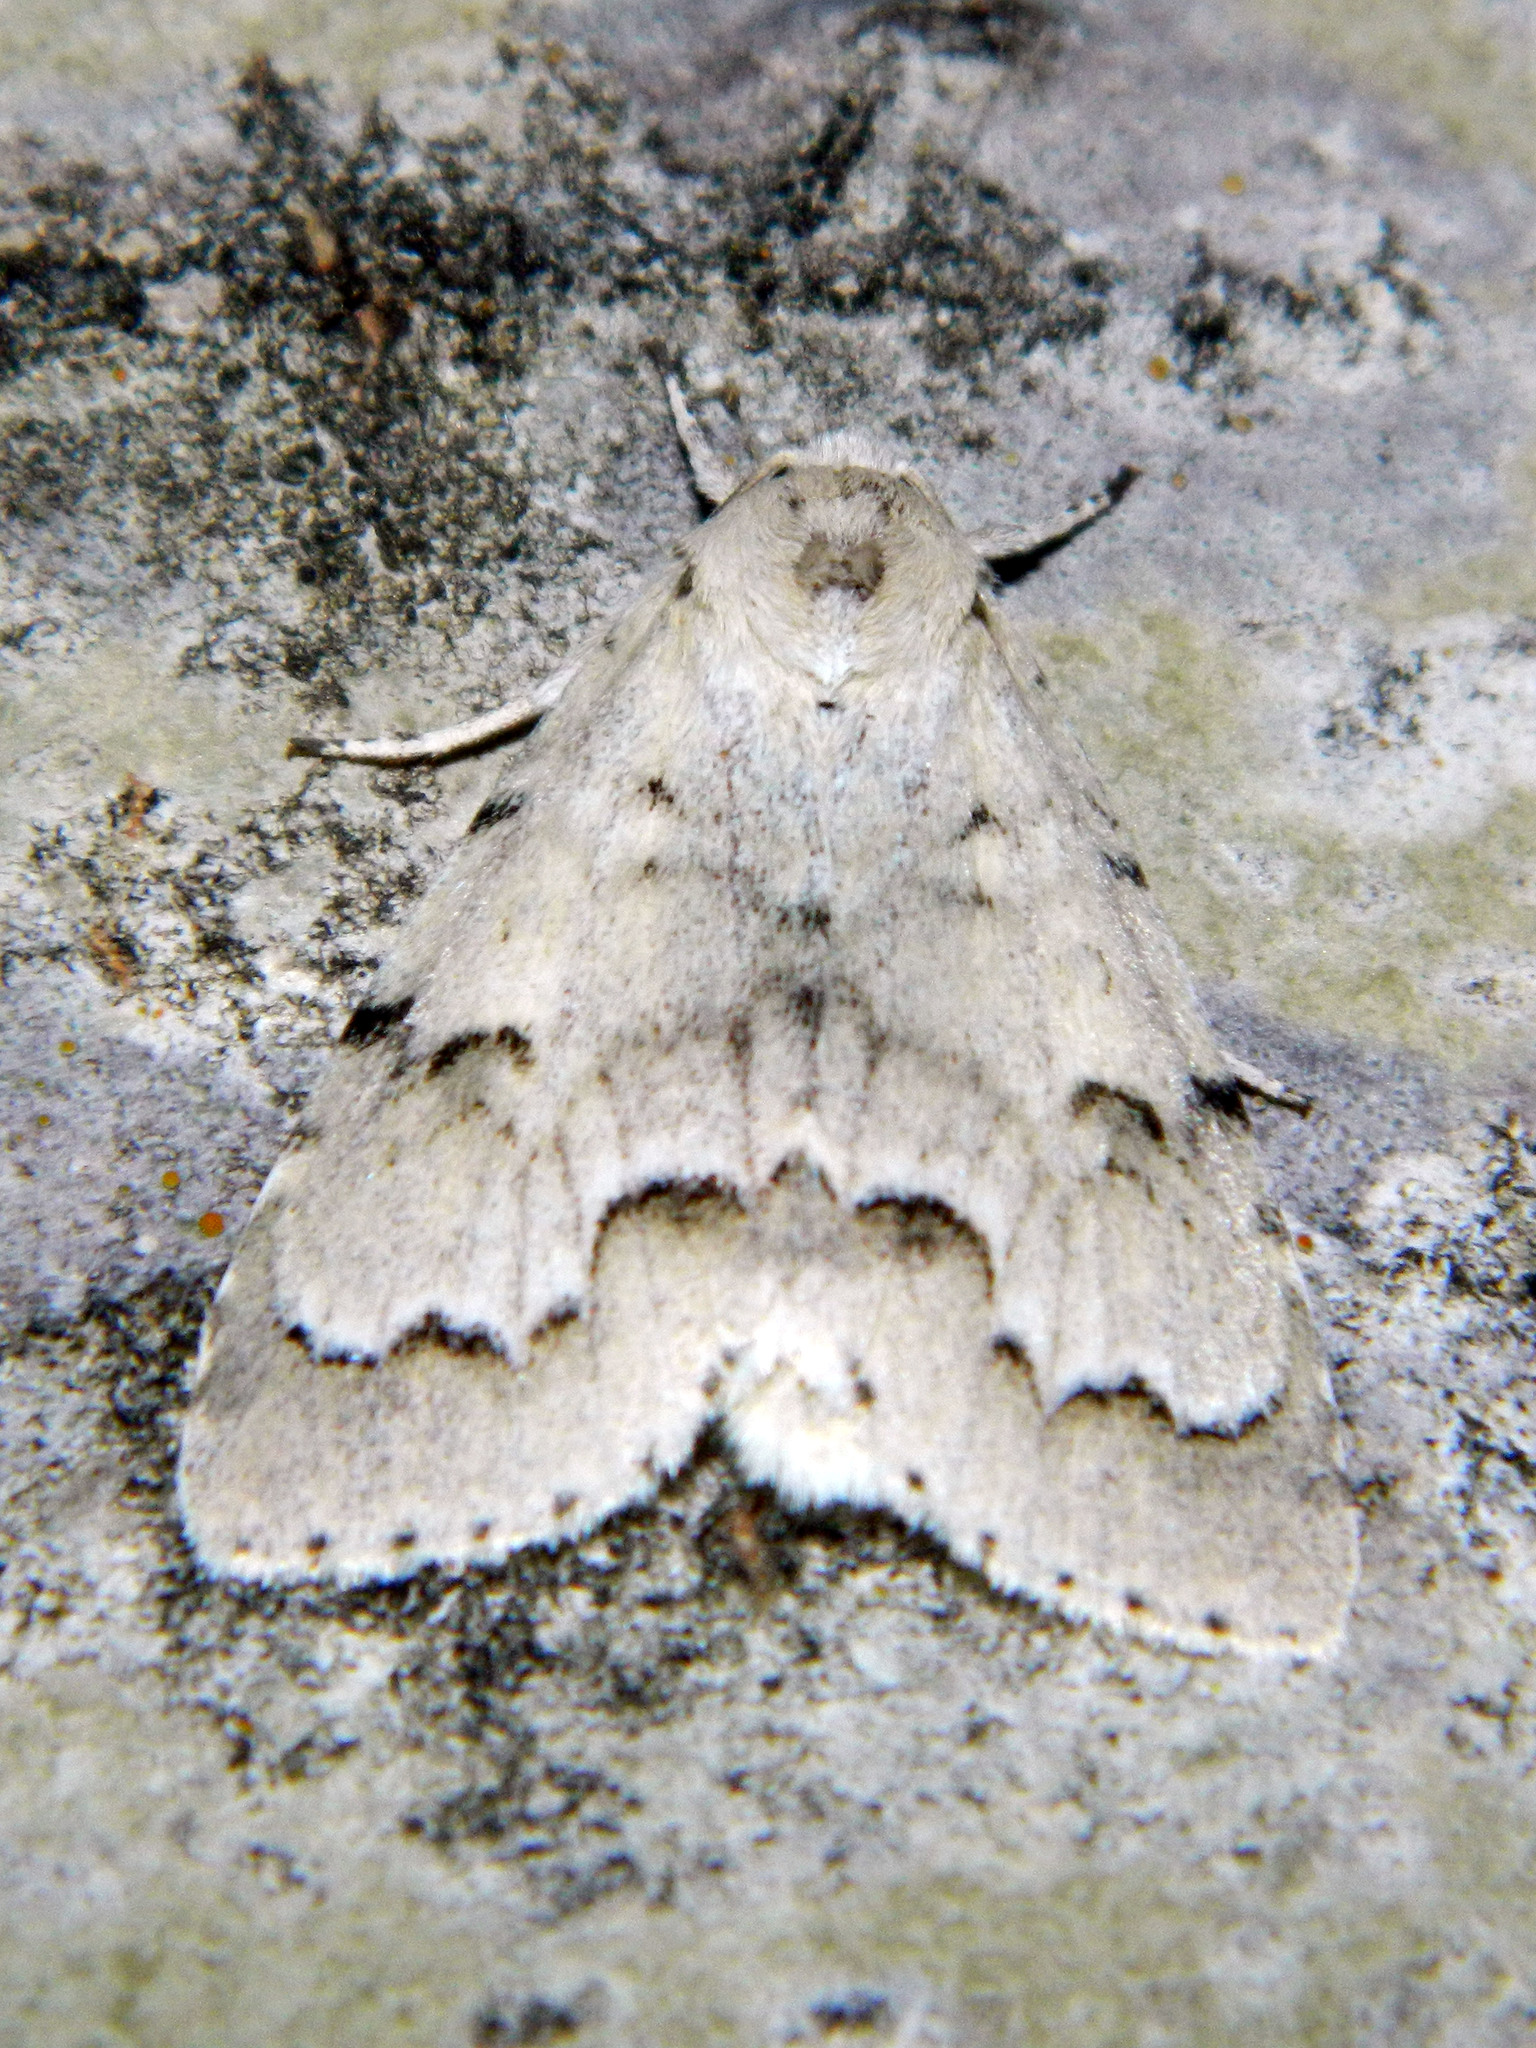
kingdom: Animalia
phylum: Arthropoda
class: Insecta
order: Lepidoptera
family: Noctuidae
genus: Acronicta
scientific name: Acronicta innotata
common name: Unmarked dagger
